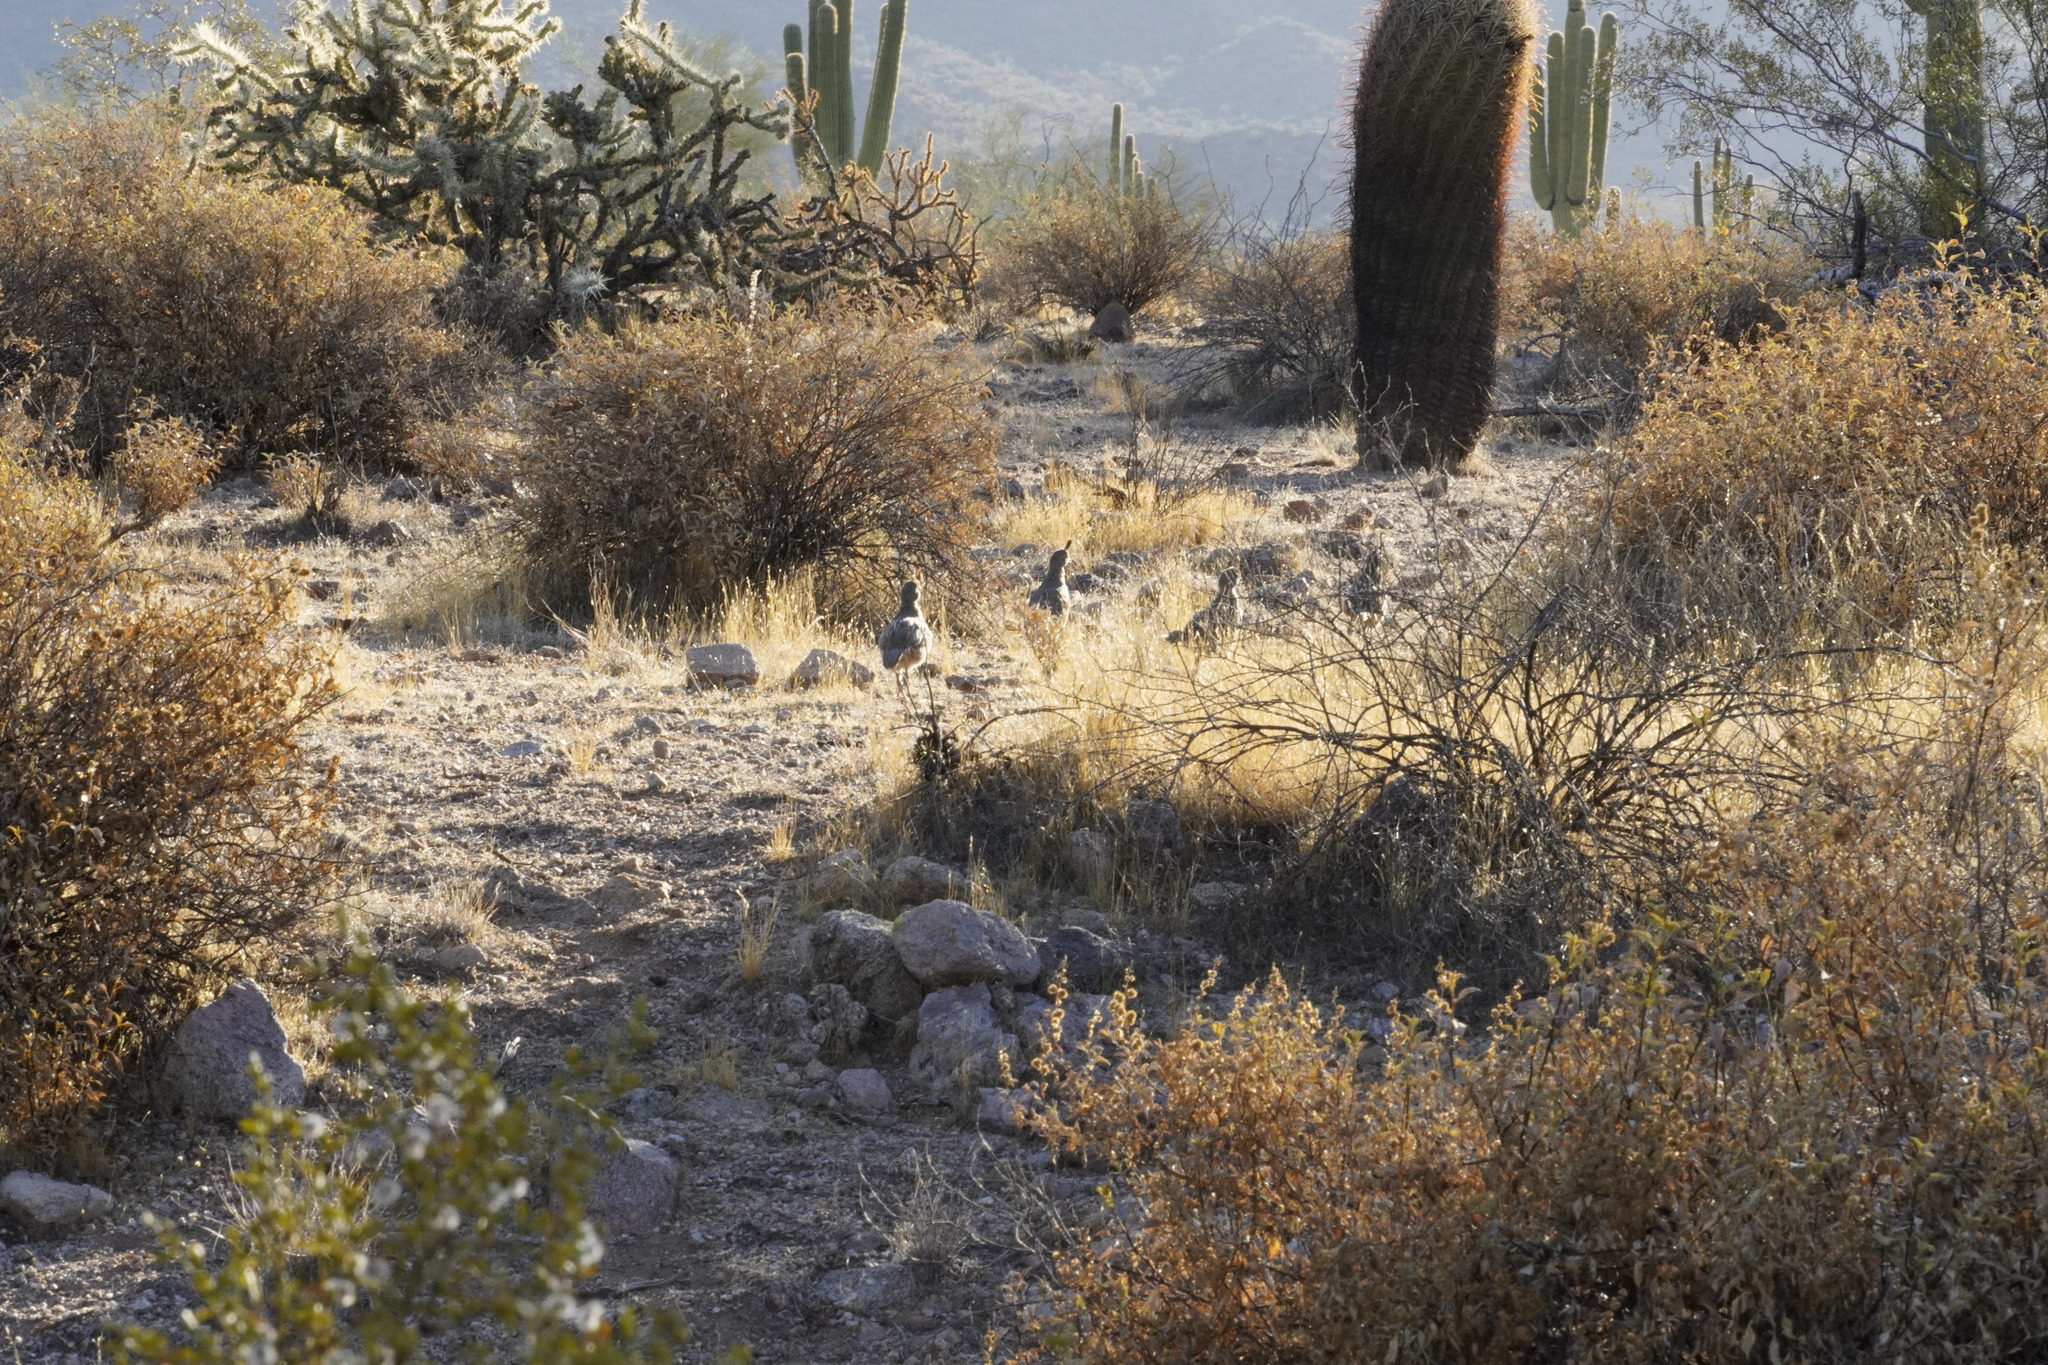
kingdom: Animalia
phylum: Chordata
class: Aves
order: Galliformes
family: Odontophoridae
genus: Callipepla
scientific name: Callipepla gambelii
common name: Gambel's quail
